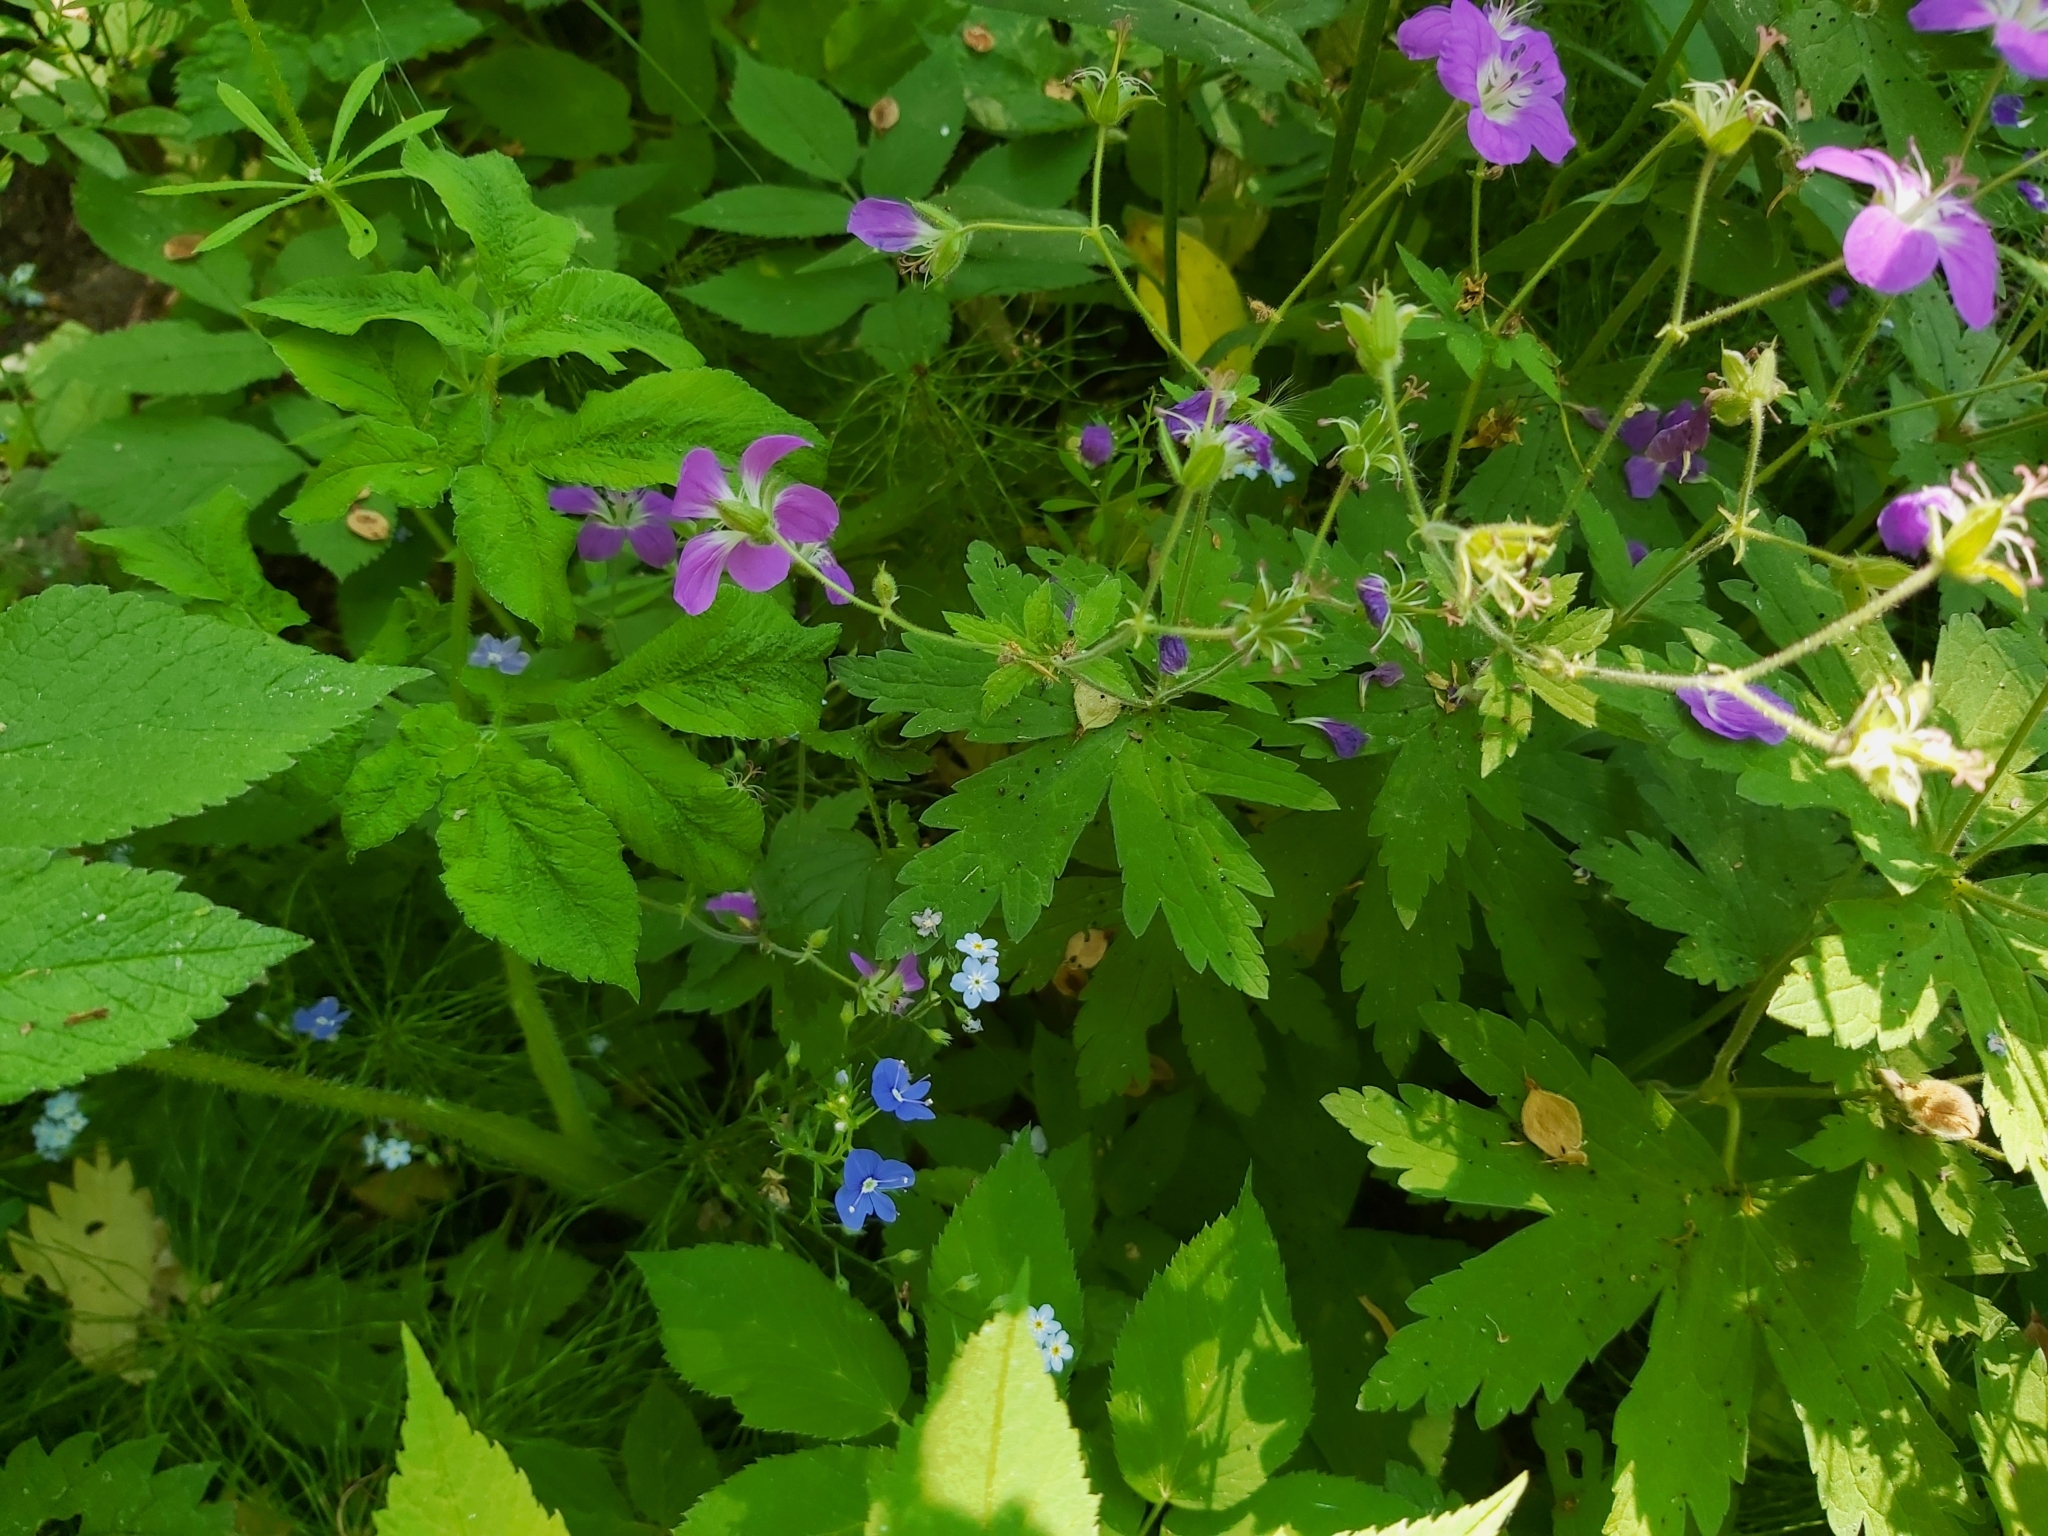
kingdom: Plantae
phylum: Tracheophyta
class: Magnoliopsida
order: Geraniales
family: Geraniaceae
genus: Geranium
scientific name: Geranium sylvaticum
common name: Wood crane's-bill
